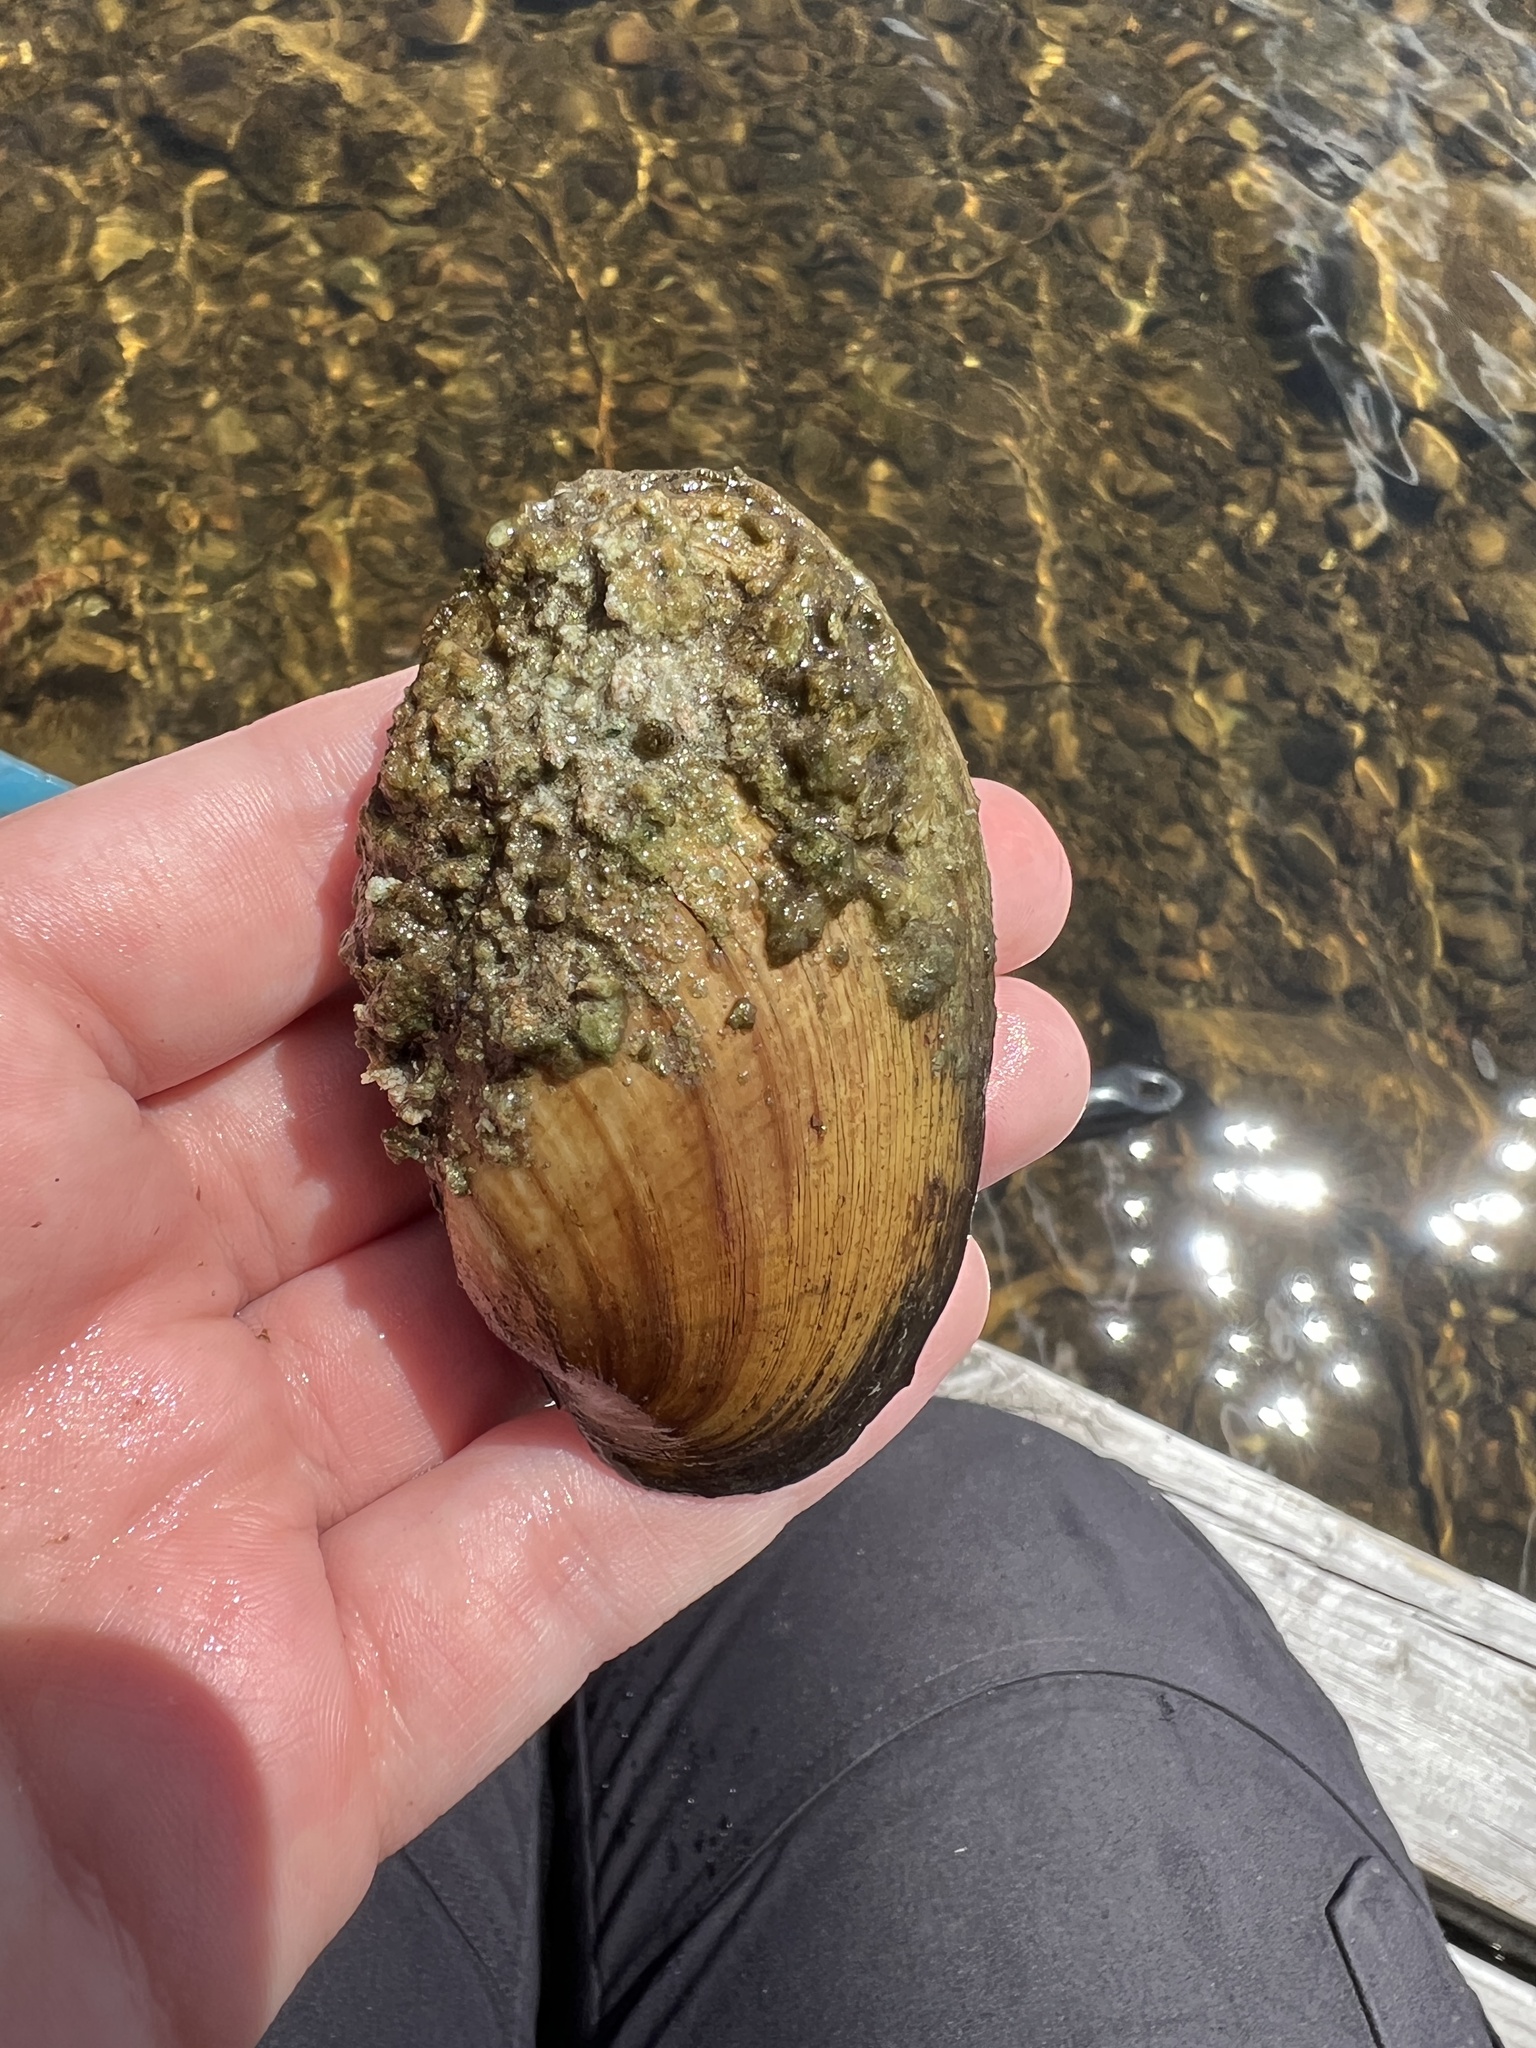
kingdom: Animalia
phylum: Mollusca
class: Bivalvia
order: Unionida
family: Unionidae
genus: Lampsilis
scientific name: Lampsilis siliquoidea
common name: Fatmucket
